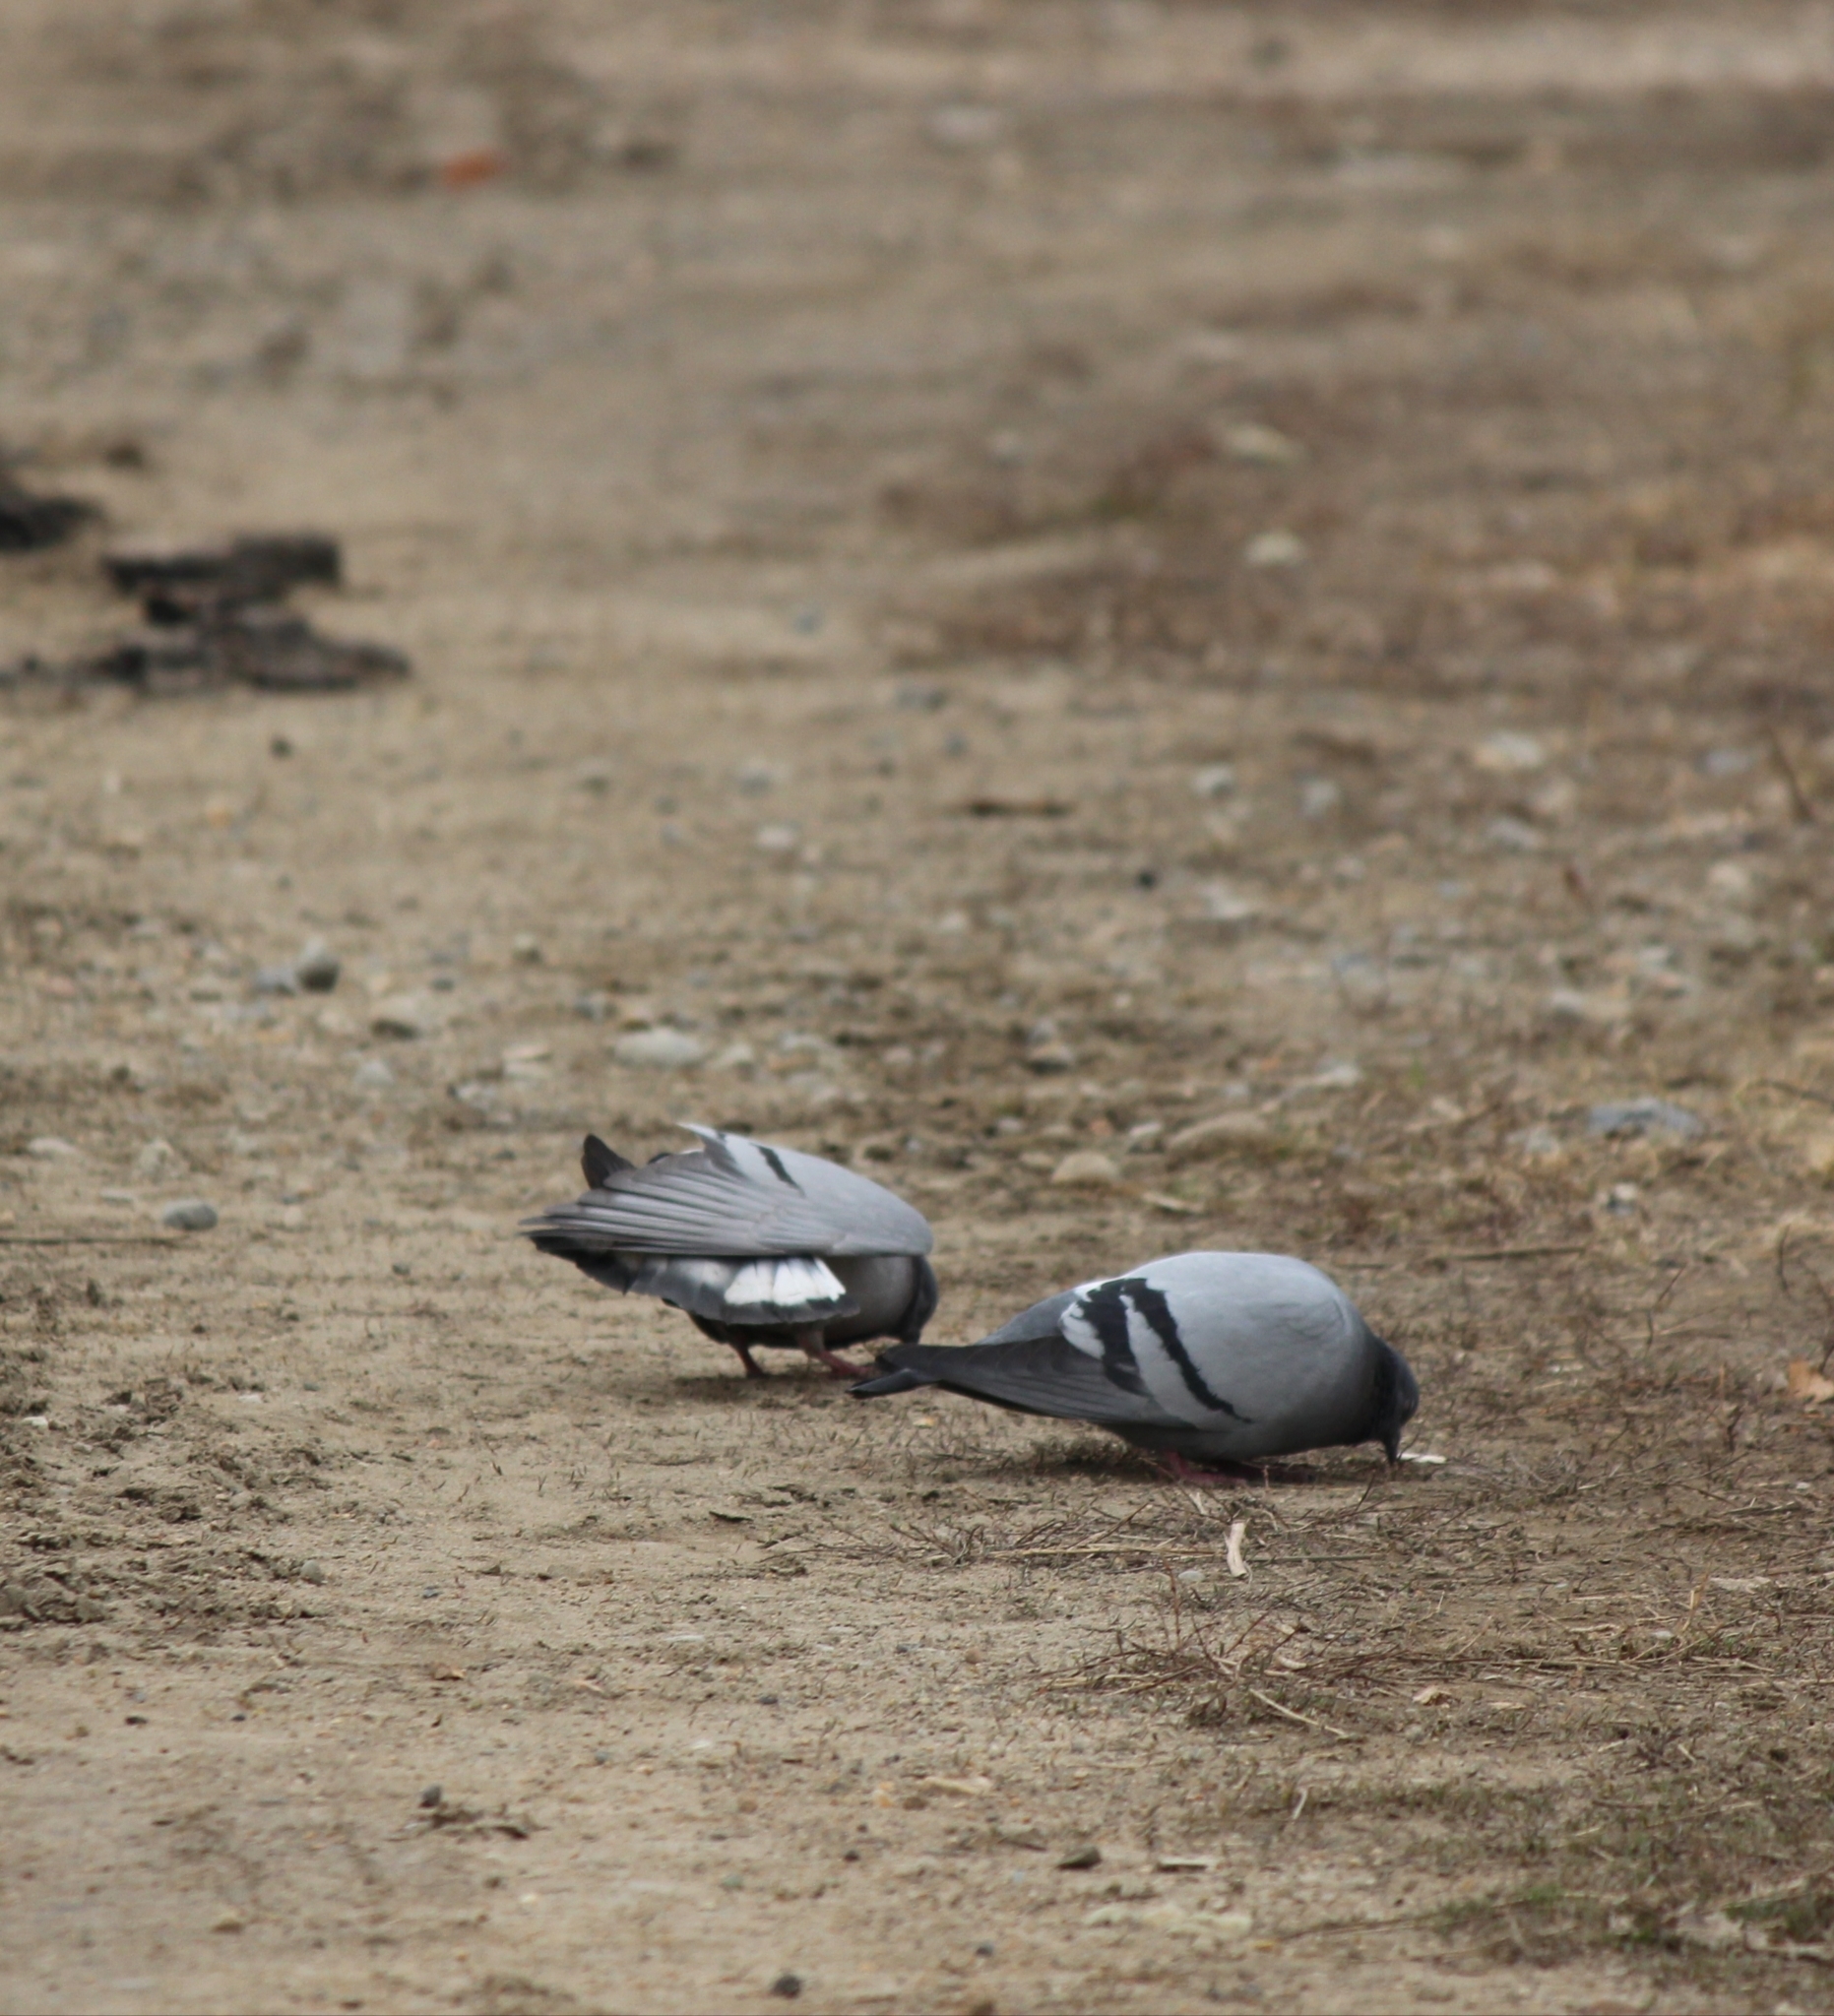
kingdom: Animalia
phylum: Chordata
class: Aves
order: Columbiformes
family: Columbidae
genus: Columba
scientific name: Columba rupestris
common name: Hill pigeon
